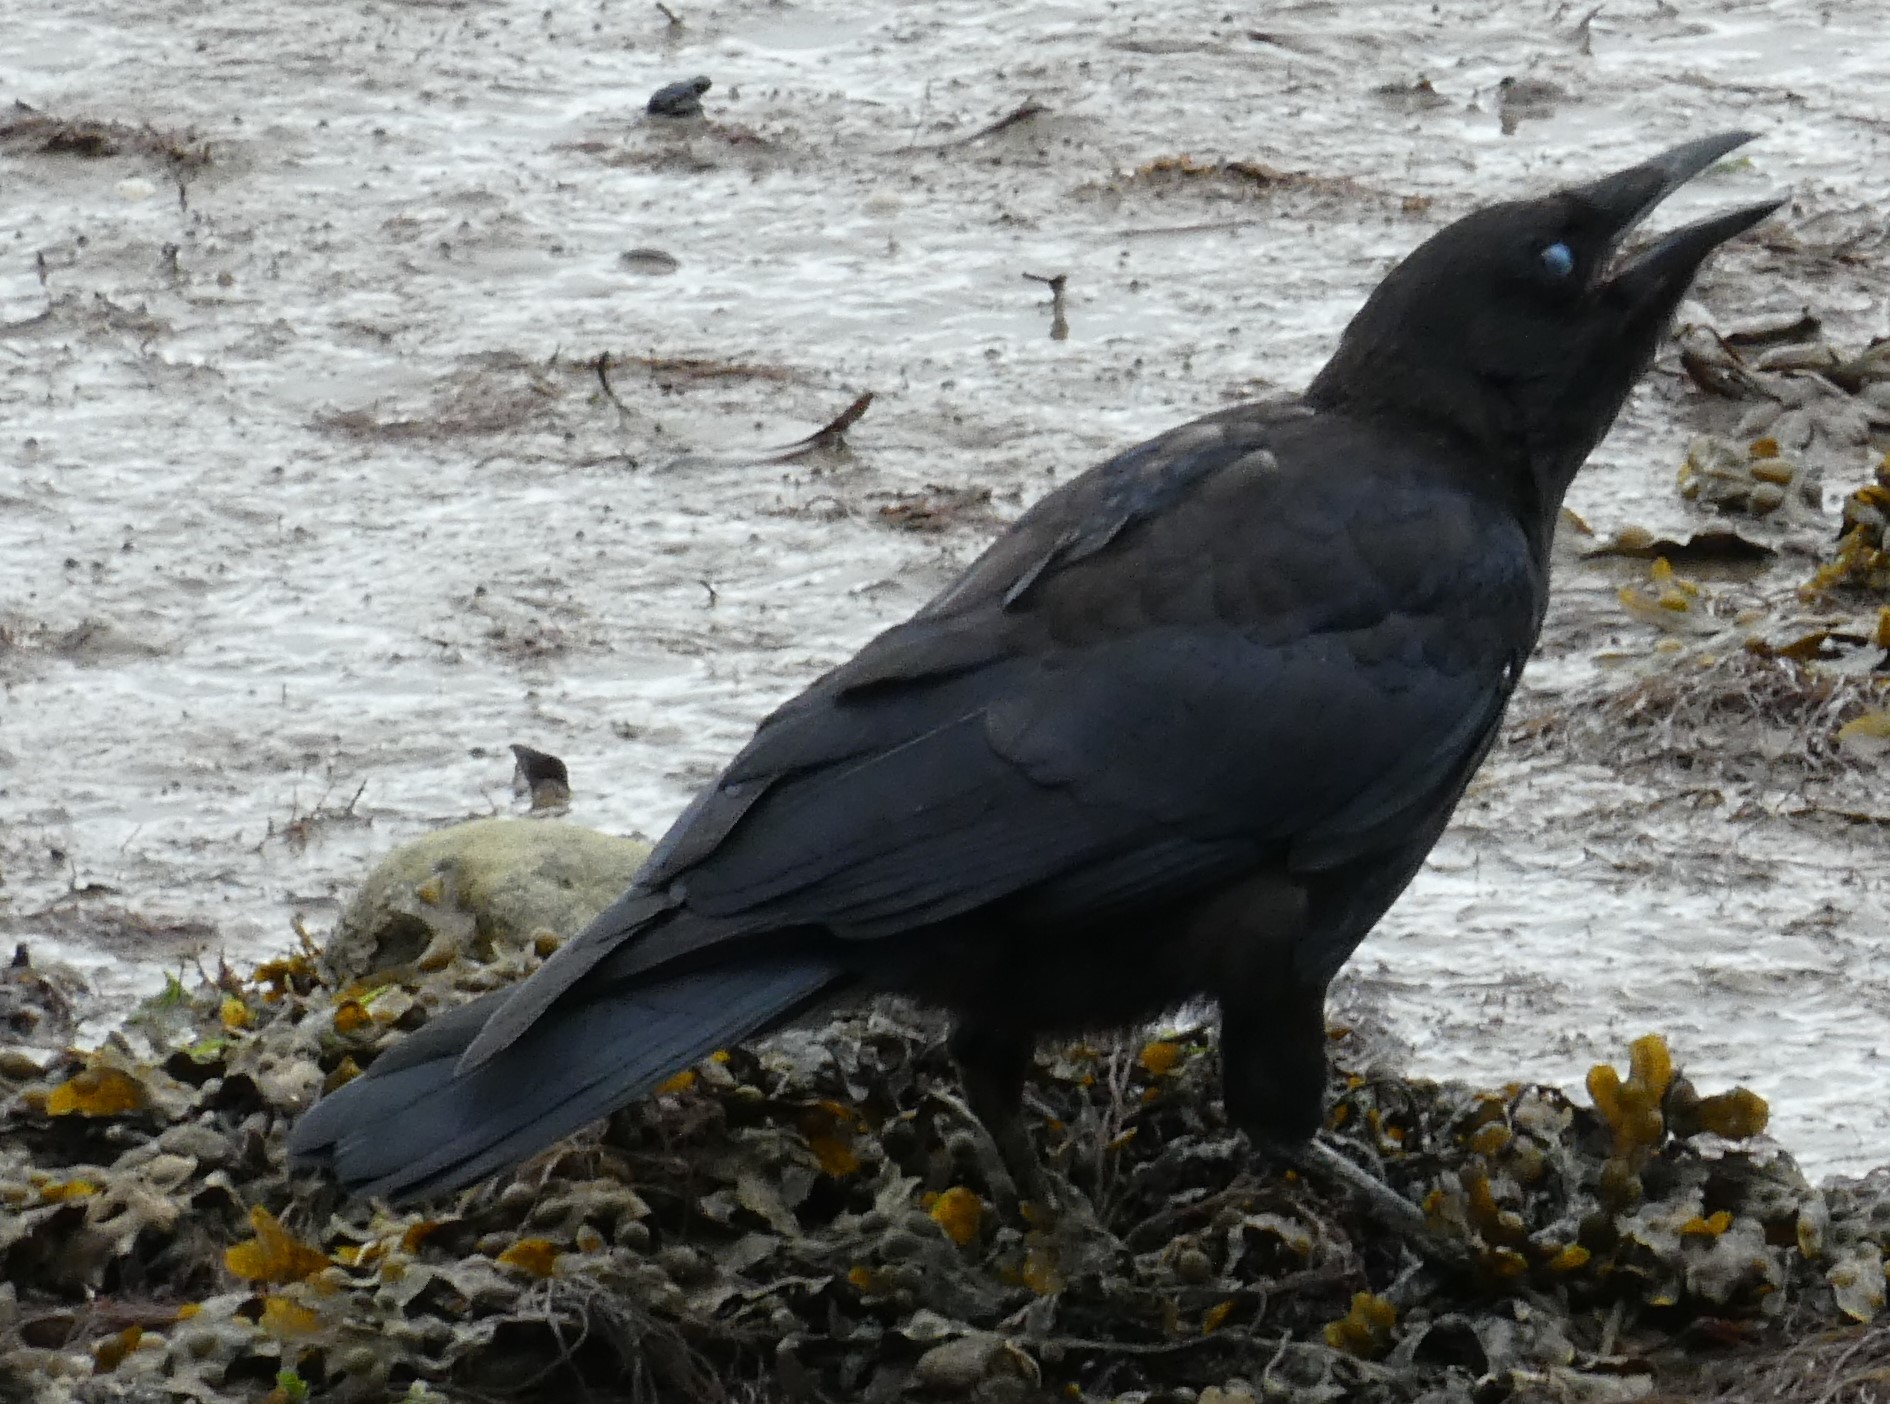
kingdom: Animalia
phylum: Chordata
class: Aves
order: Passeriformes
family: Corvidae
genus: Corvus
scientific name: Corvus corone
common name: Carrion crow
